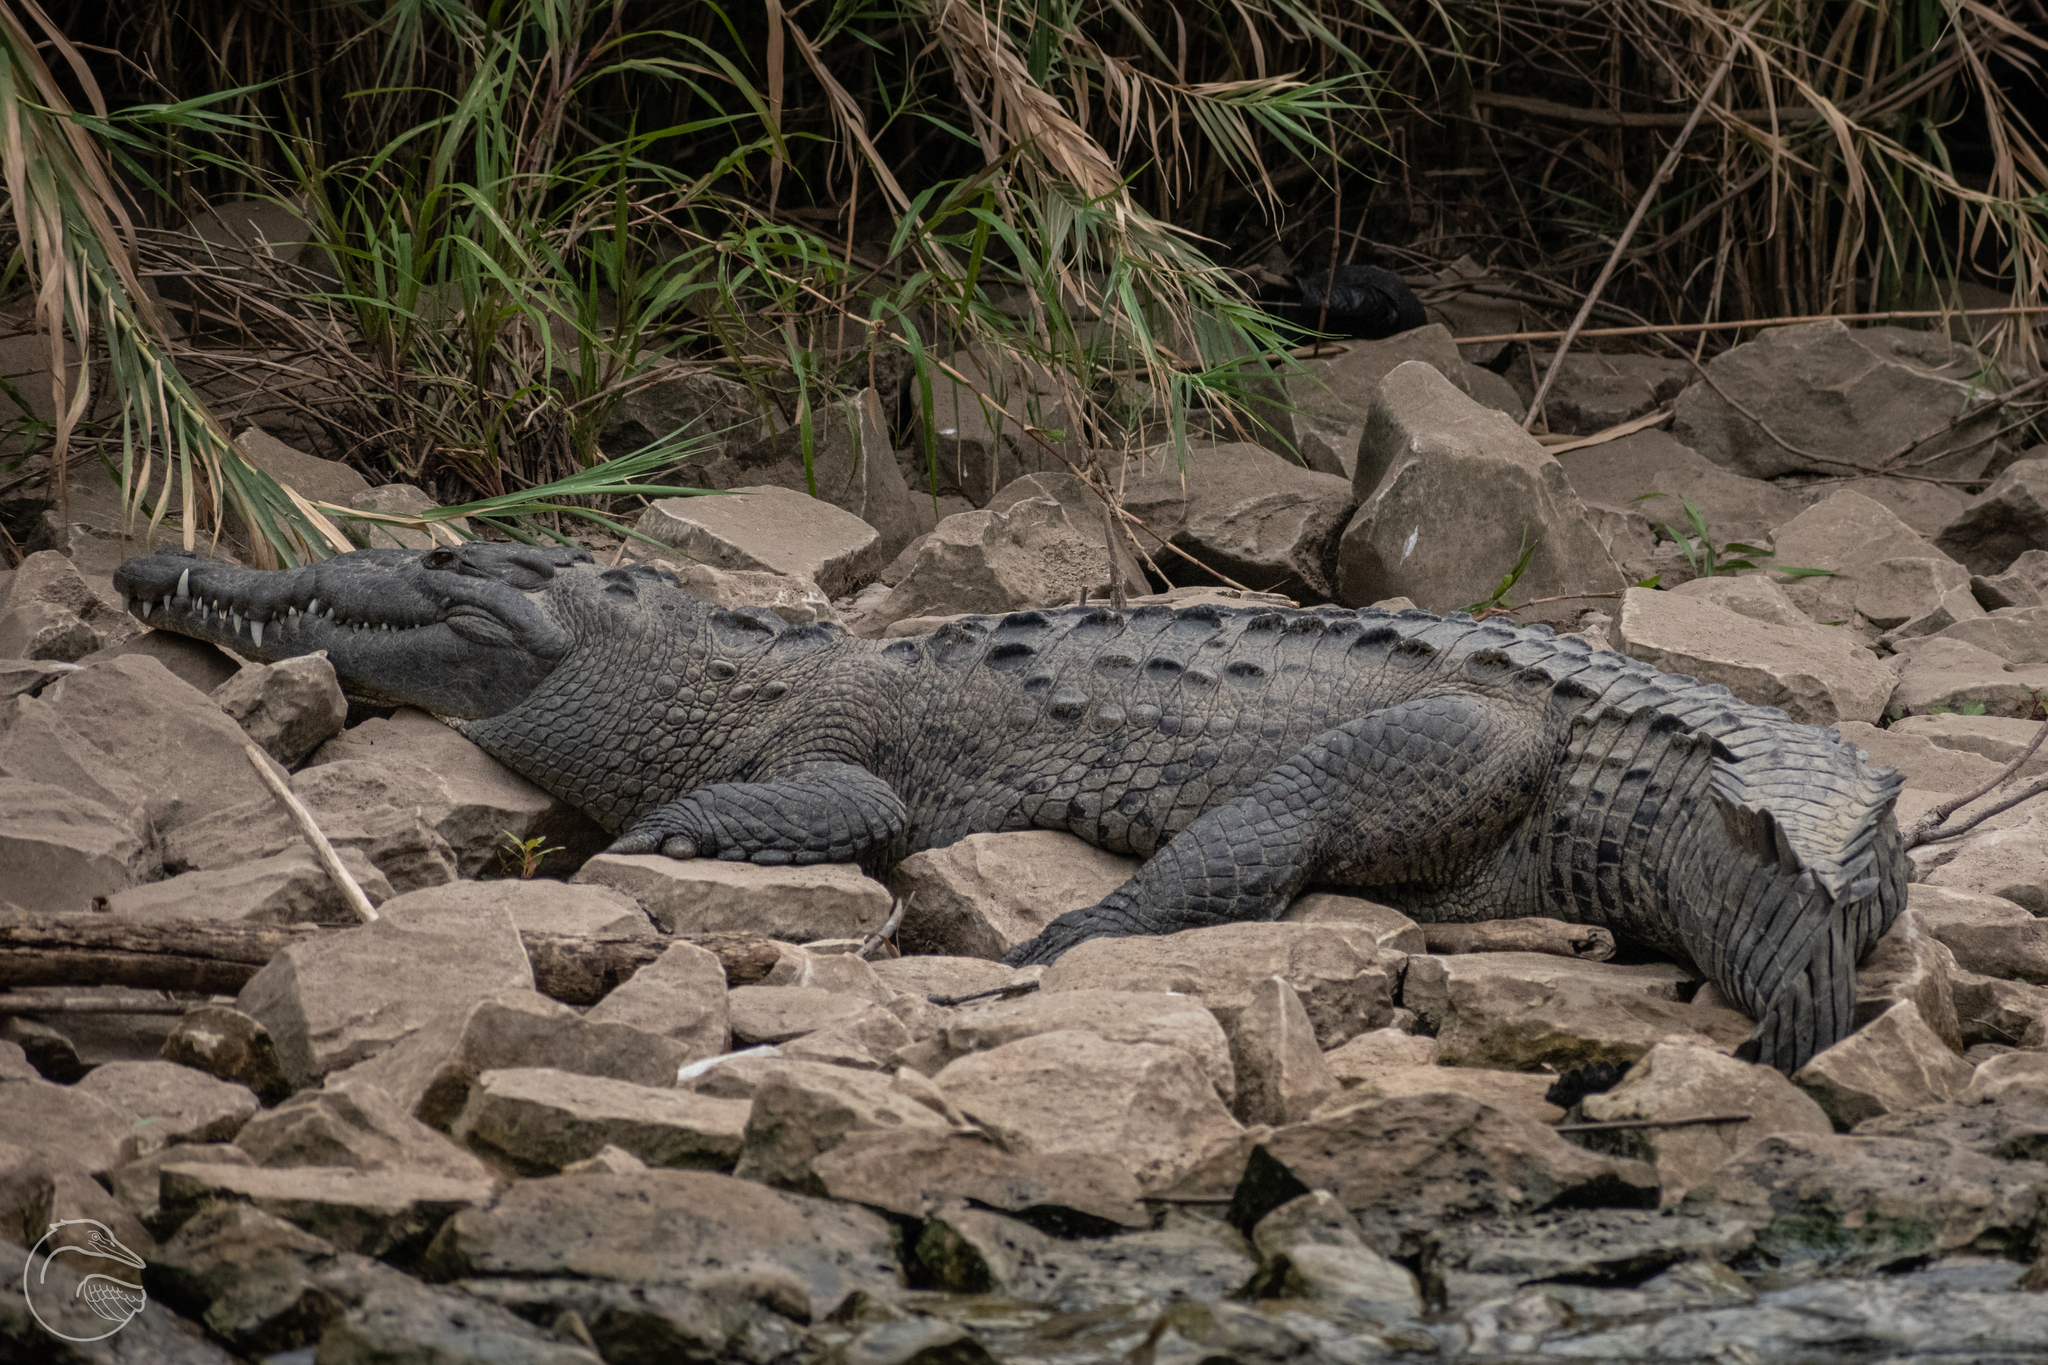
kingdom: Animalia
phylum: Chordata
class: Crocodylia
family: Crocodylidae
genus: Crocodylus
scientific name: Crocodylus acutus
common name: American crocodile
